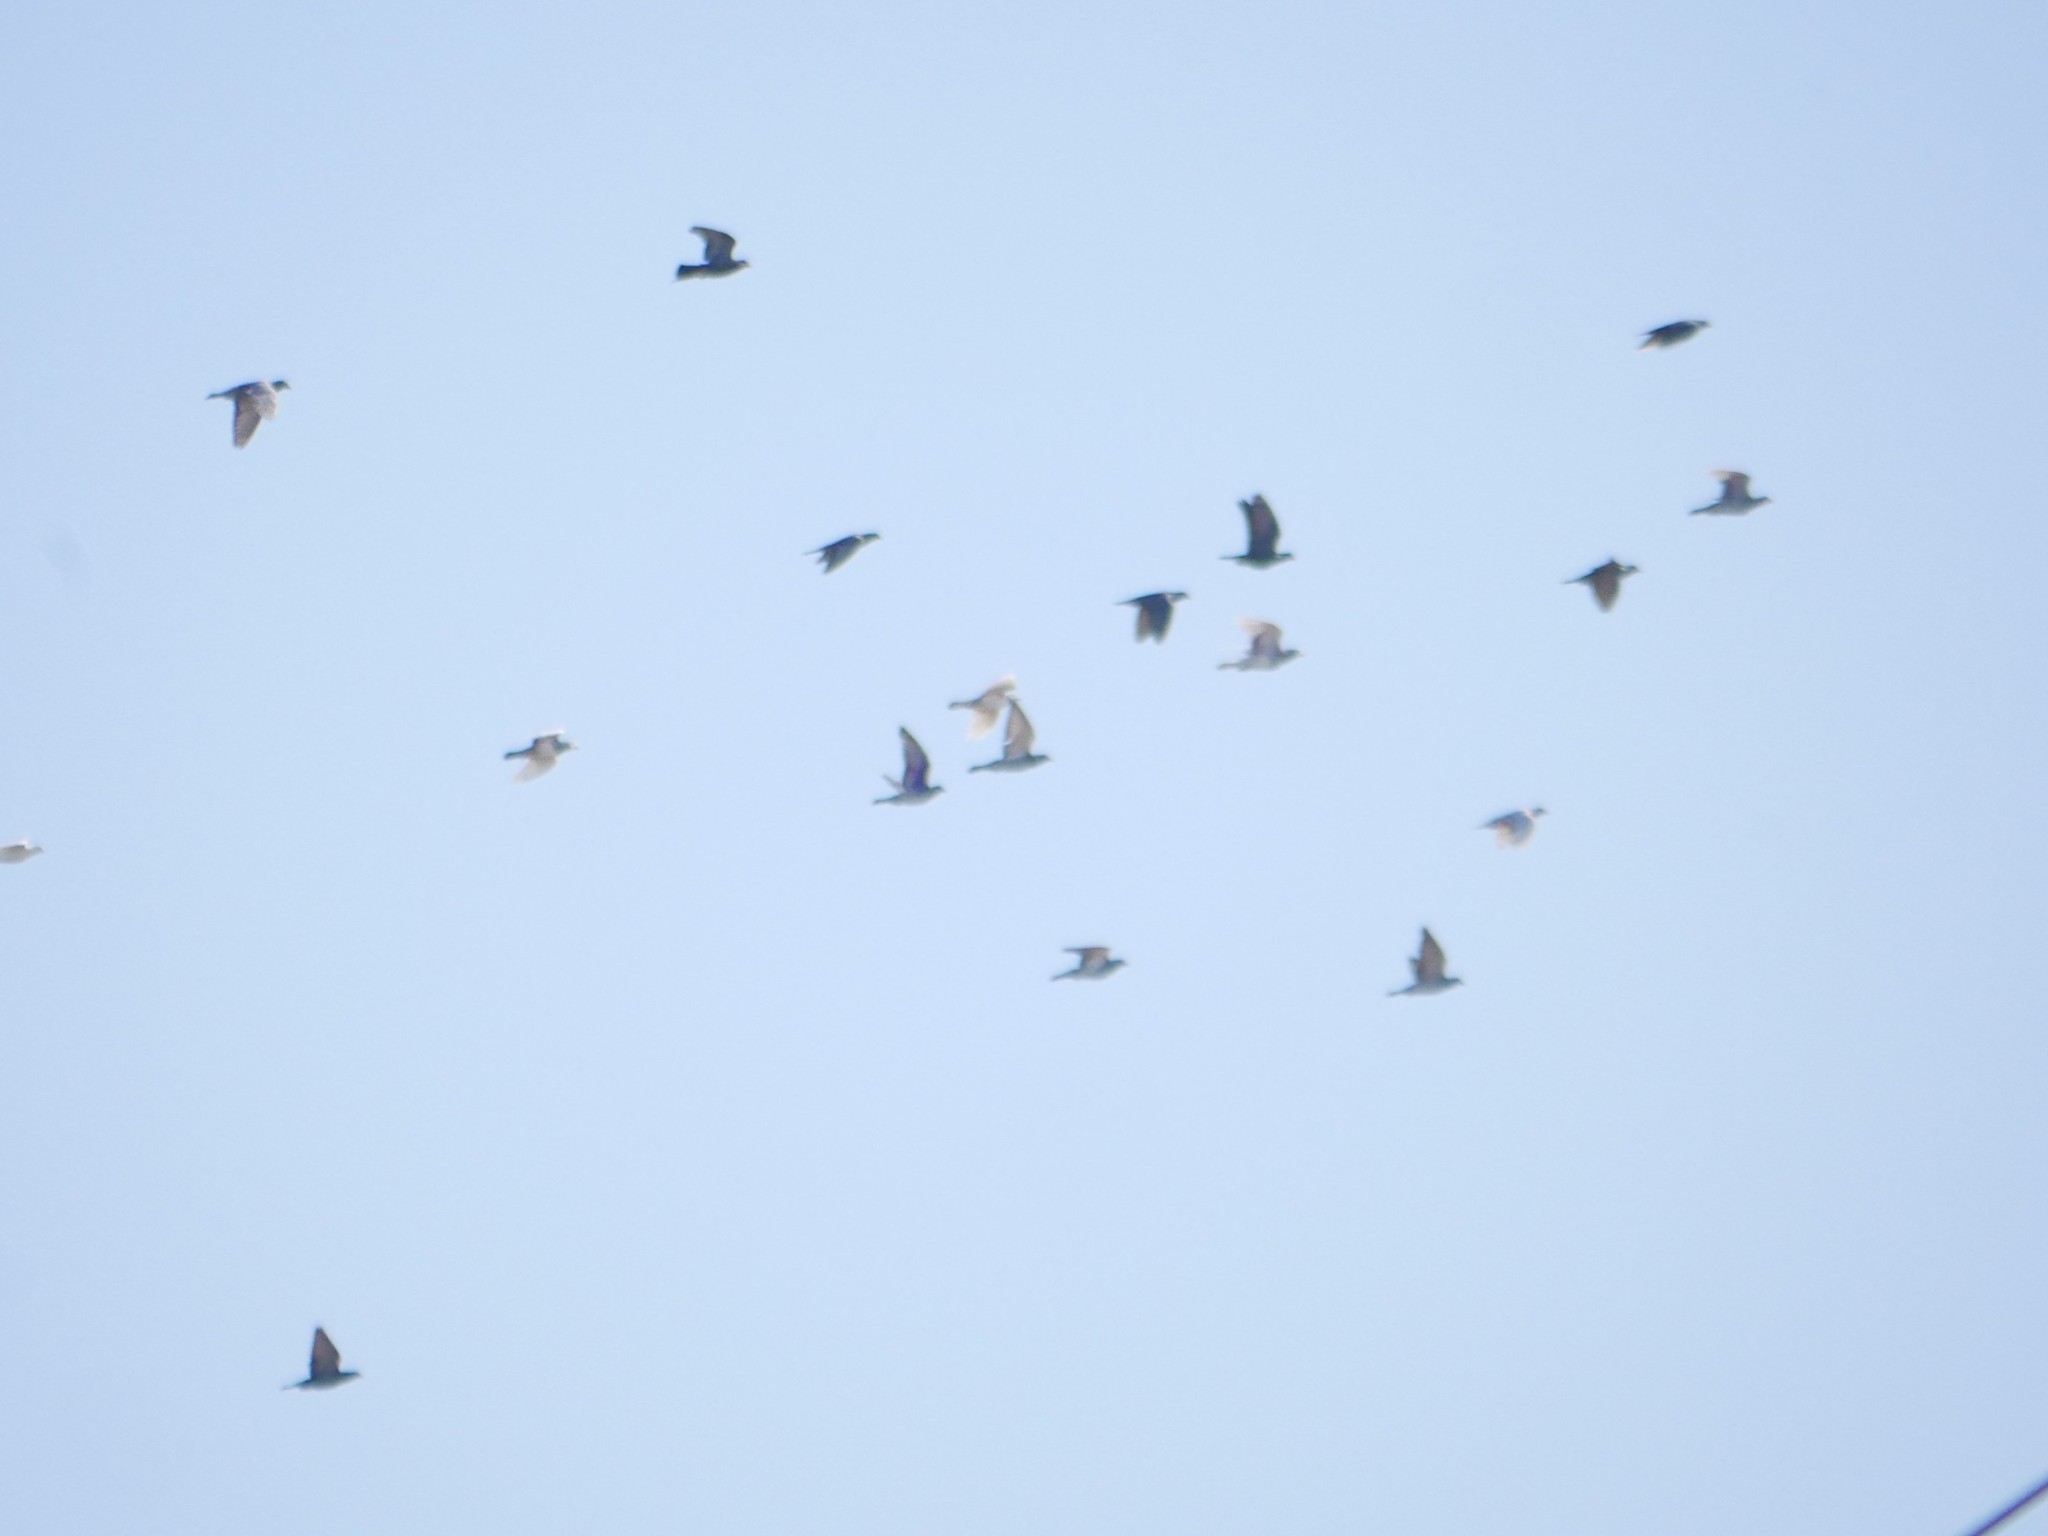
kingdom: Animalia
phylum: Chordata
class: Aves
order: Columbiformes
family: Columbidae
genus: Columba
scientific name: Columba livia
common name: Rock pigeon
